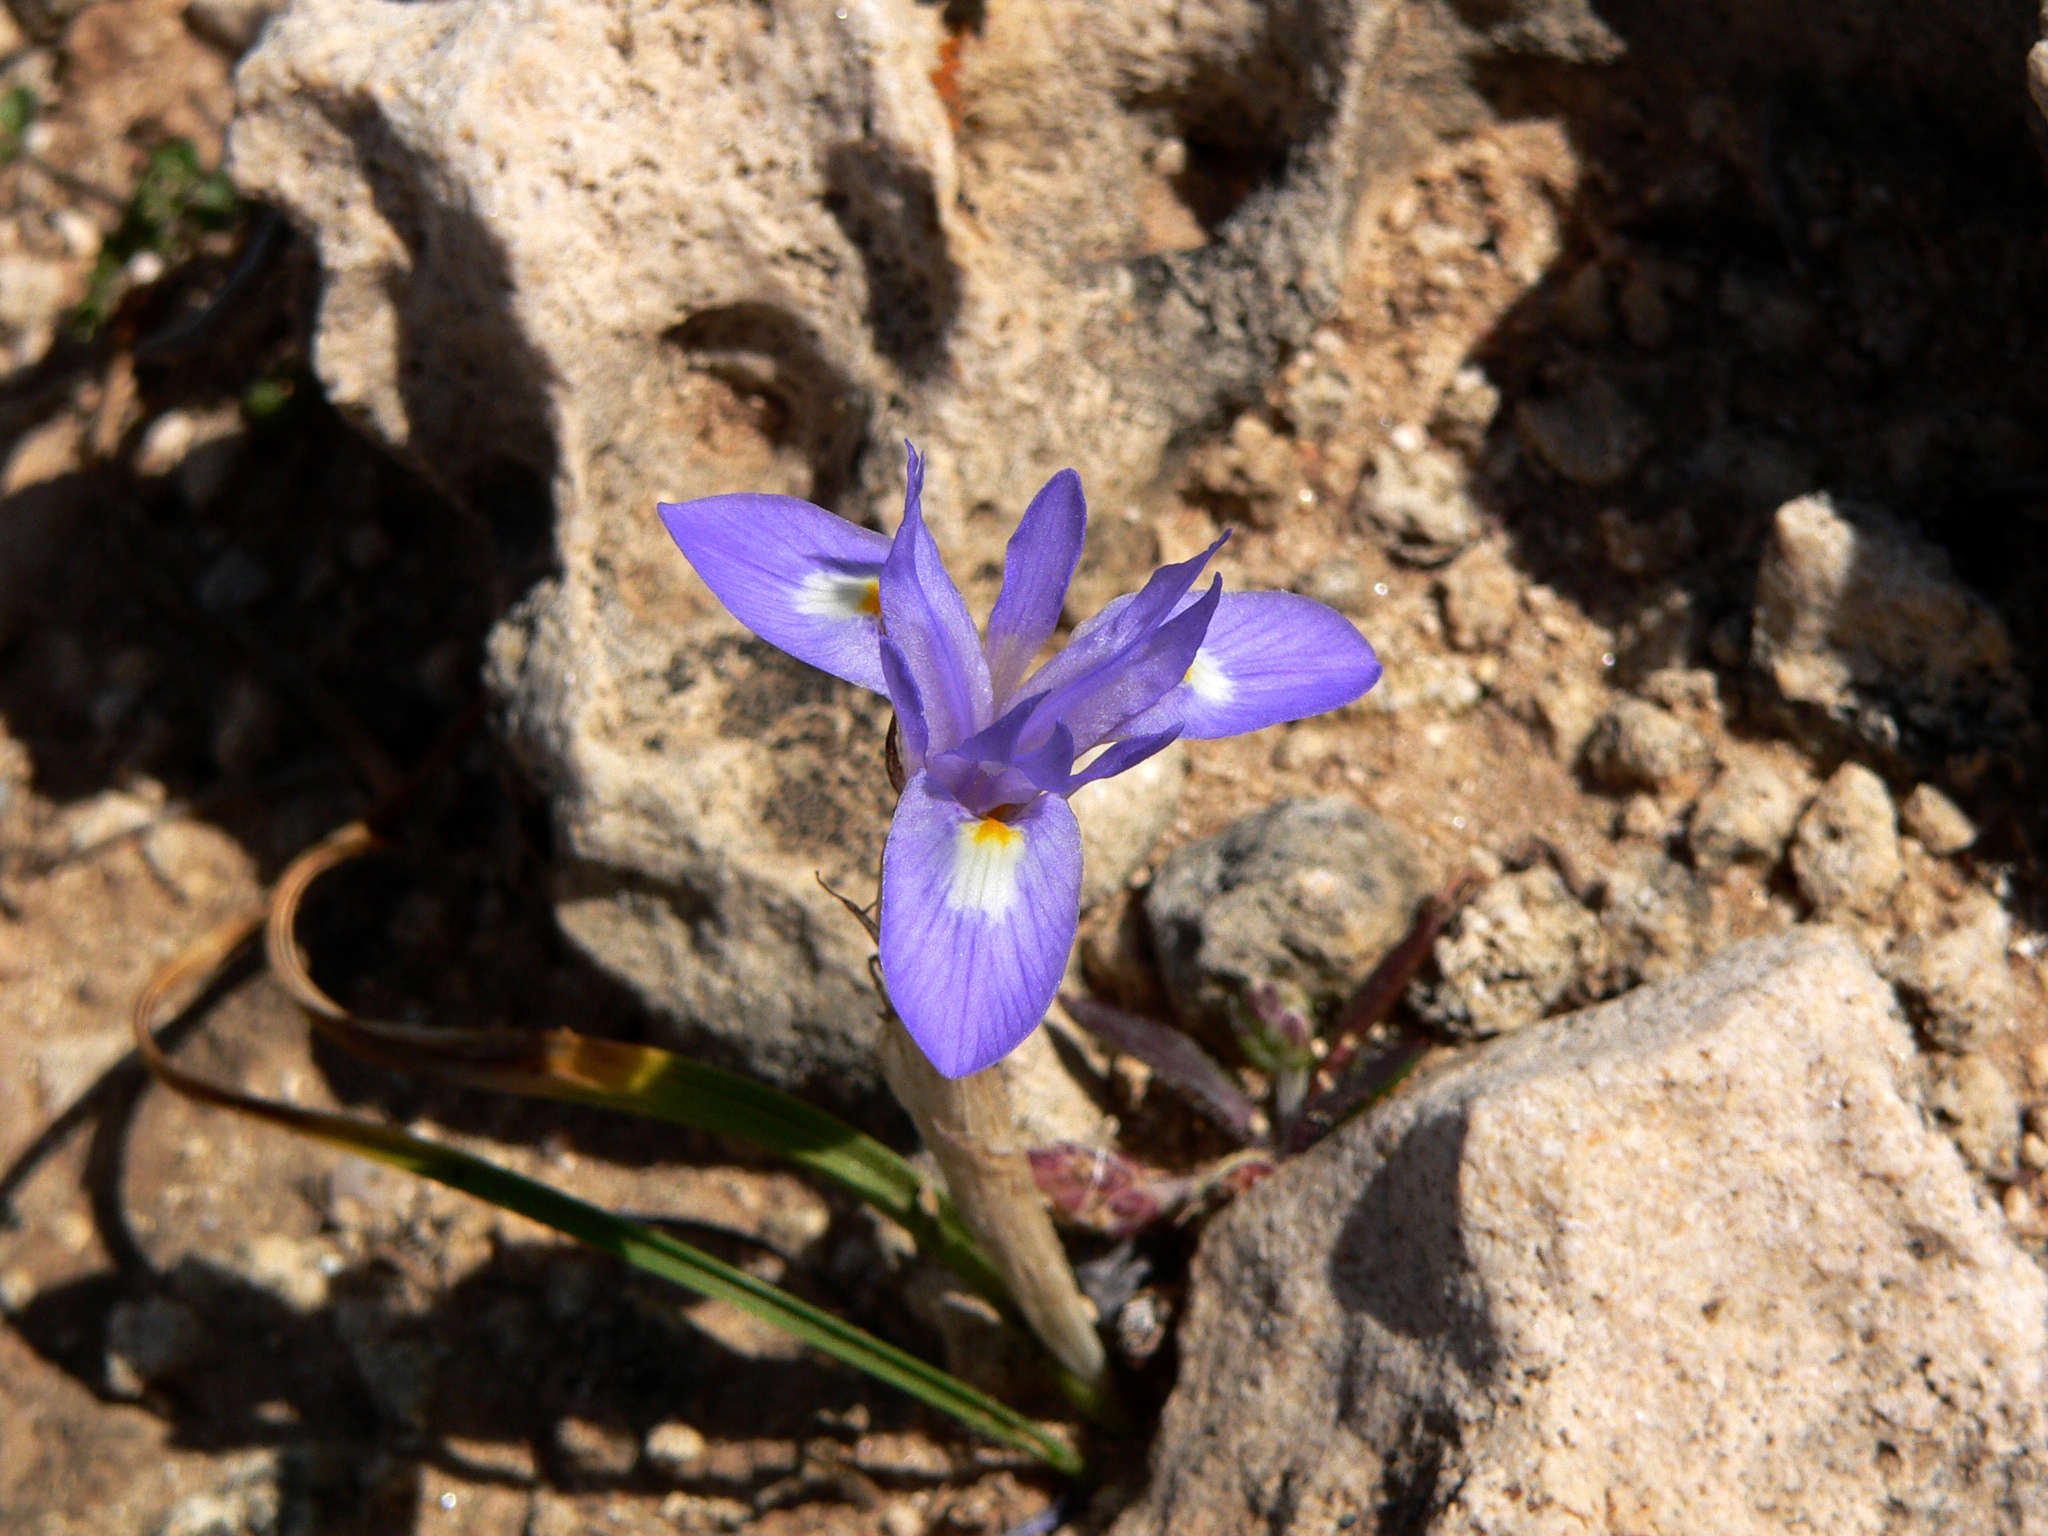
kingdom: Plantae
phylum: Tracheophyta
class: Liliopsida
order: Asparagales
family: Iridaceae
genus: Moraea
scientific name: Moraea sisyrinchium
